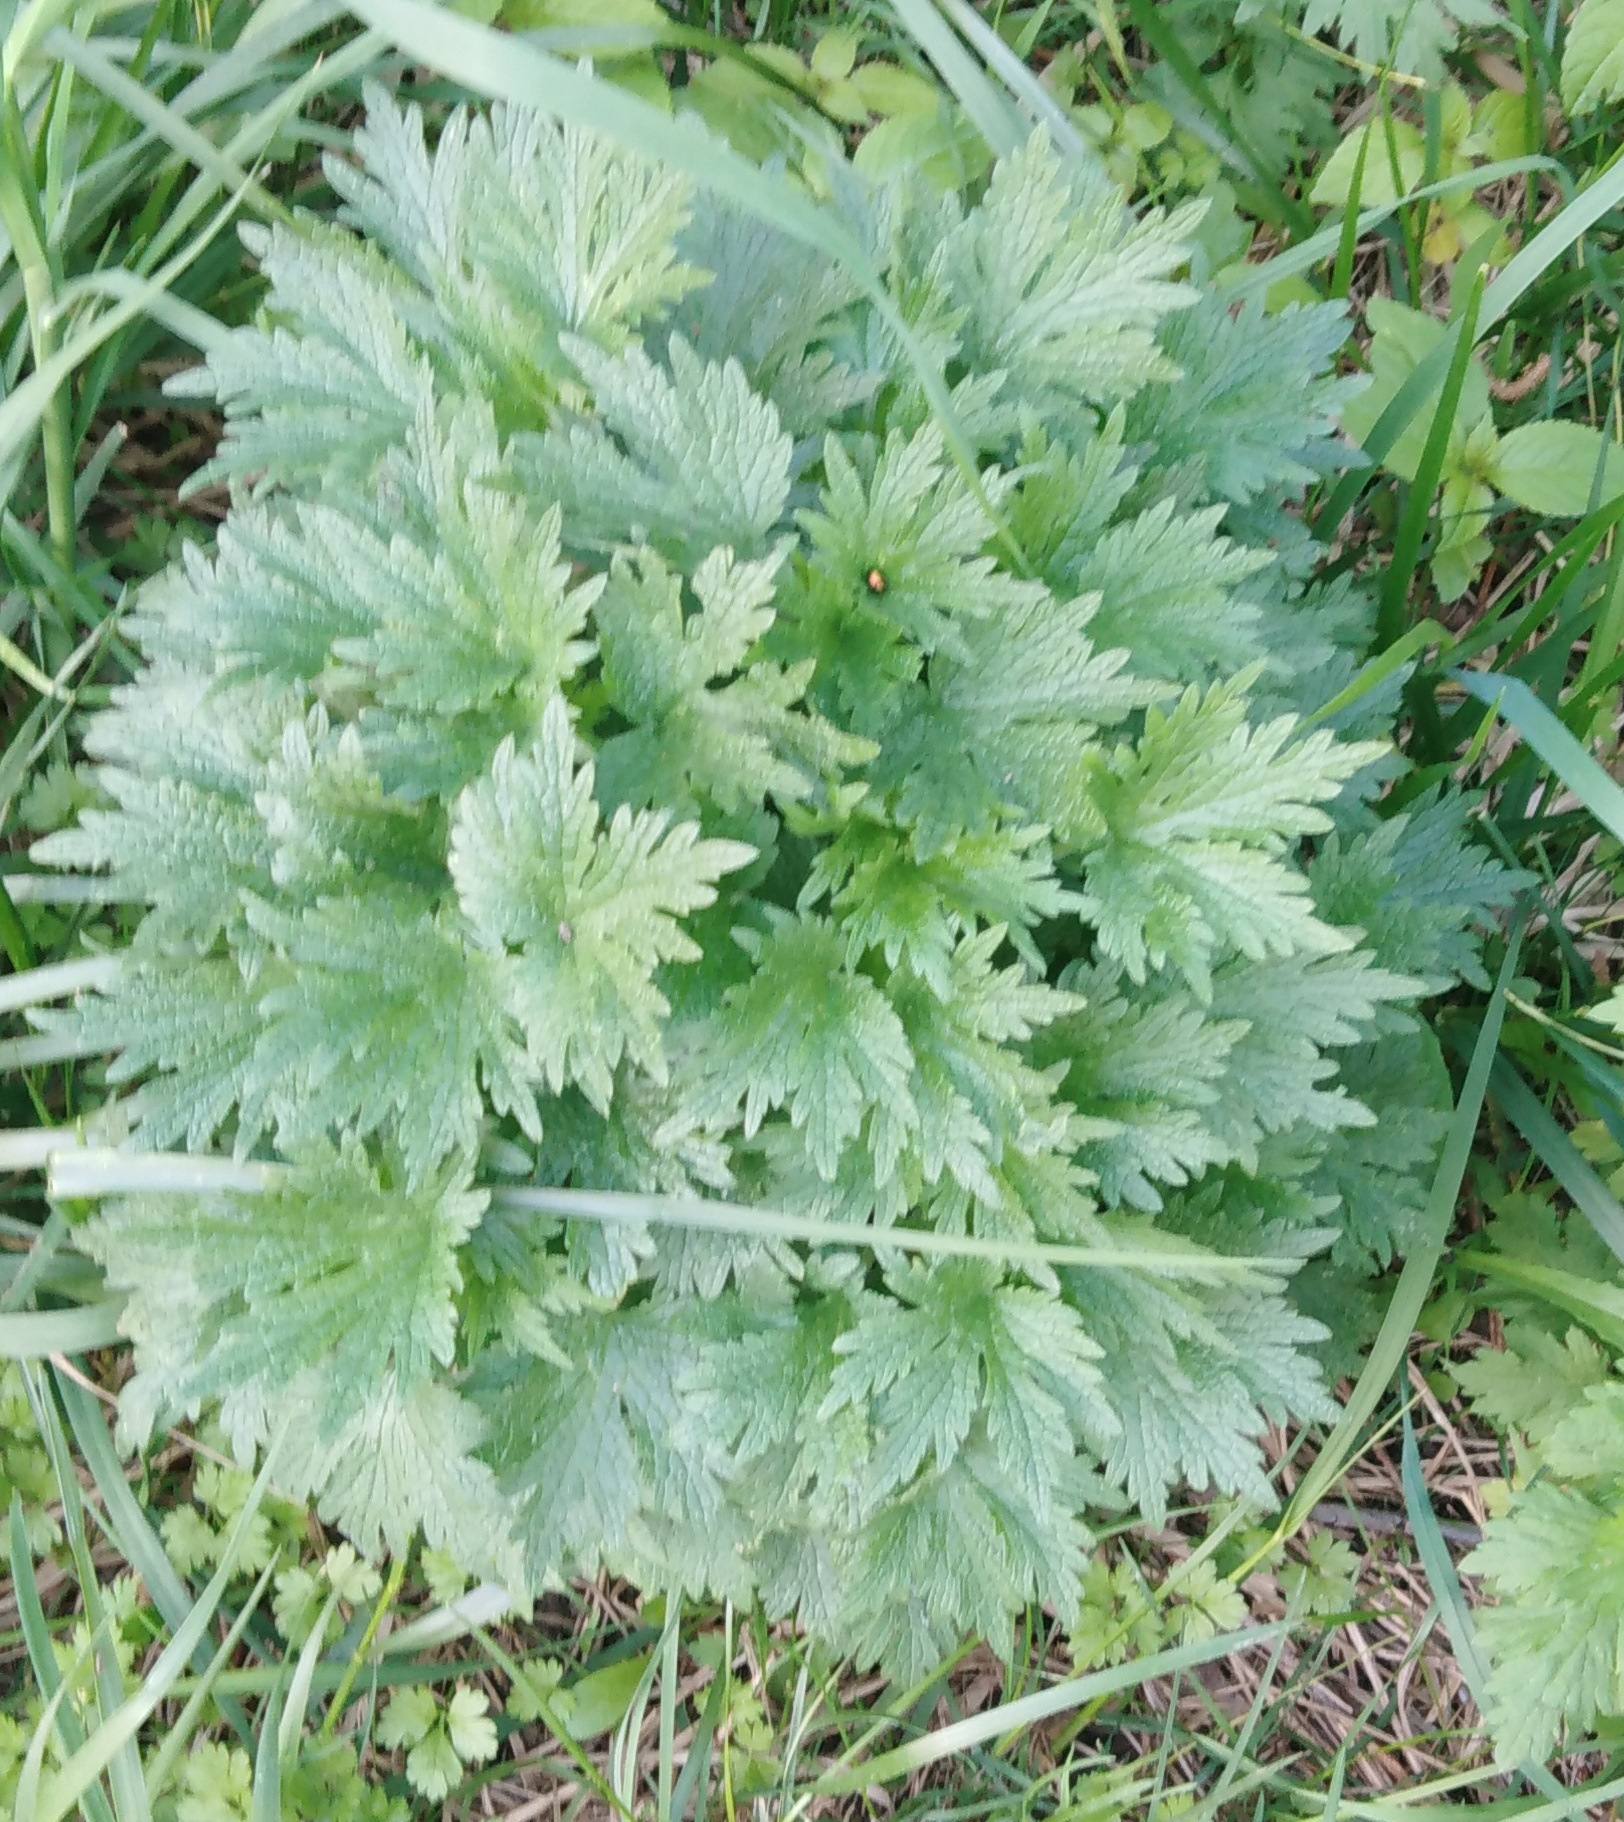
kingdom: Plantae
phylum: Tracheophyta
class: Magnoliopsida
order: Lamiales
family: Lamiaceae
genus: Leonurus
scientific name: Leonurus quinquelobatus
